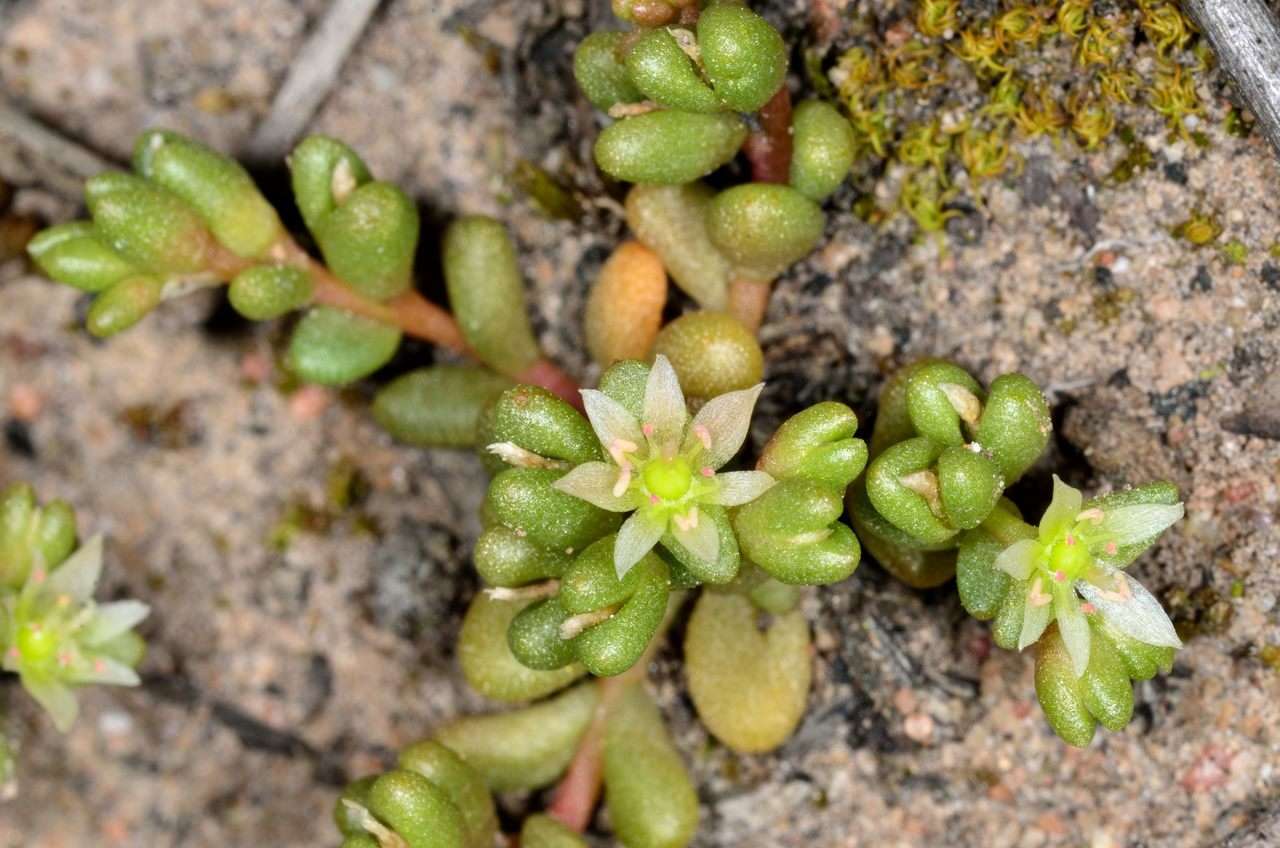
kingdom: Plantae
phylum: Tracheophyta
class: Magnoliopsida
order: Caryophyllales
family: Montiaceae
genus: Rumicastrum
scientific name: Rumicastrum granuliferum
